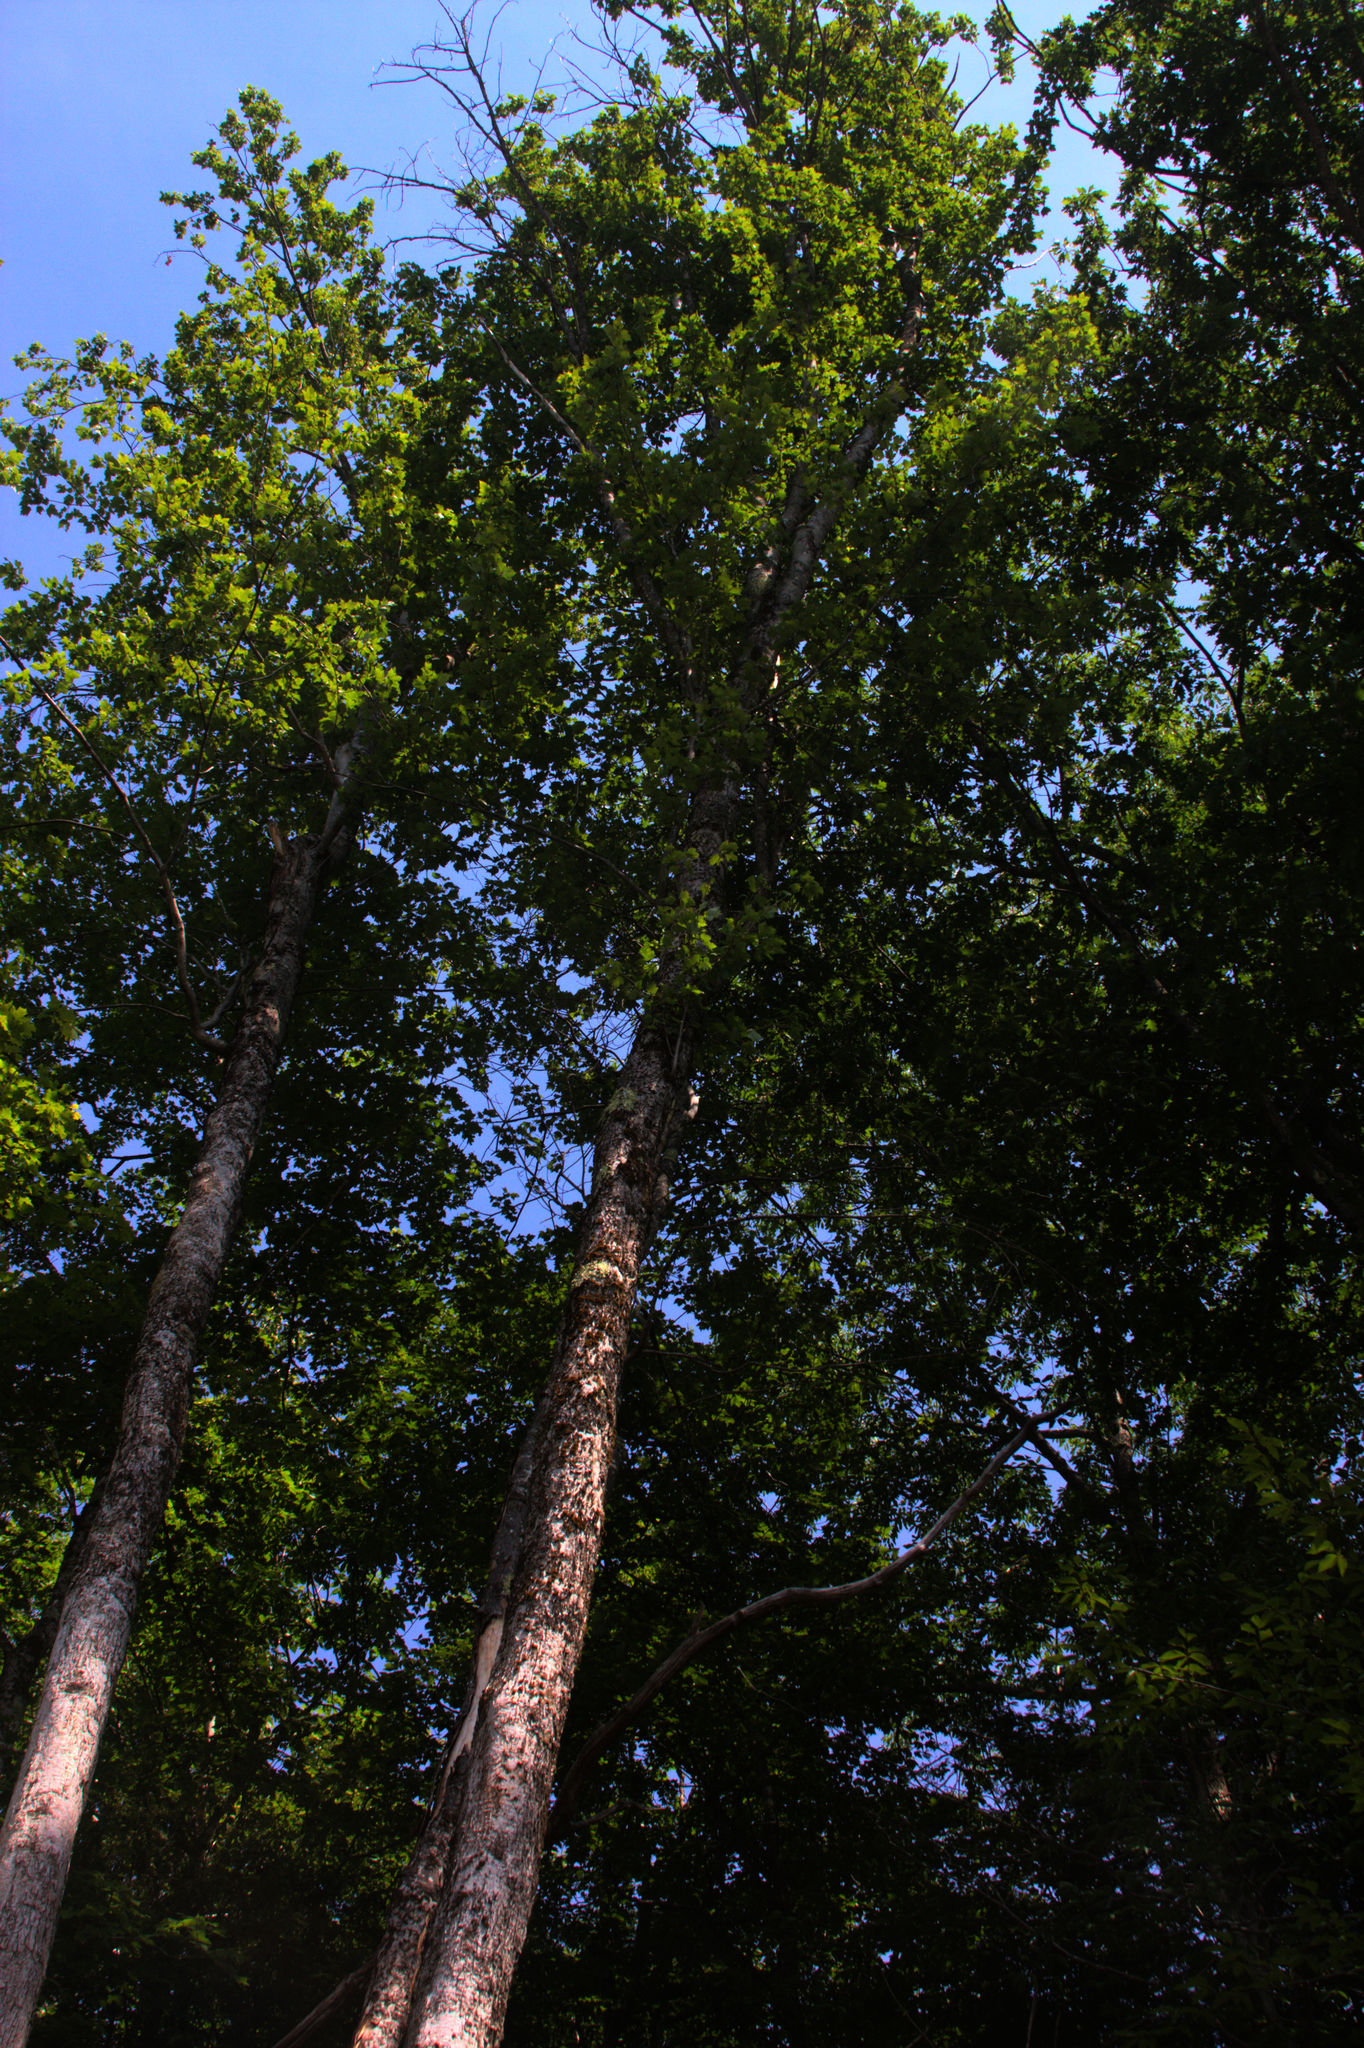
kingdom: Plantae
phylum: Tracheophyta
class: Magnoliopsida
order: Sapindales
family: Sapindaceae
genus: Acer
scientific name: Acer rubrum
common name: Red maple
